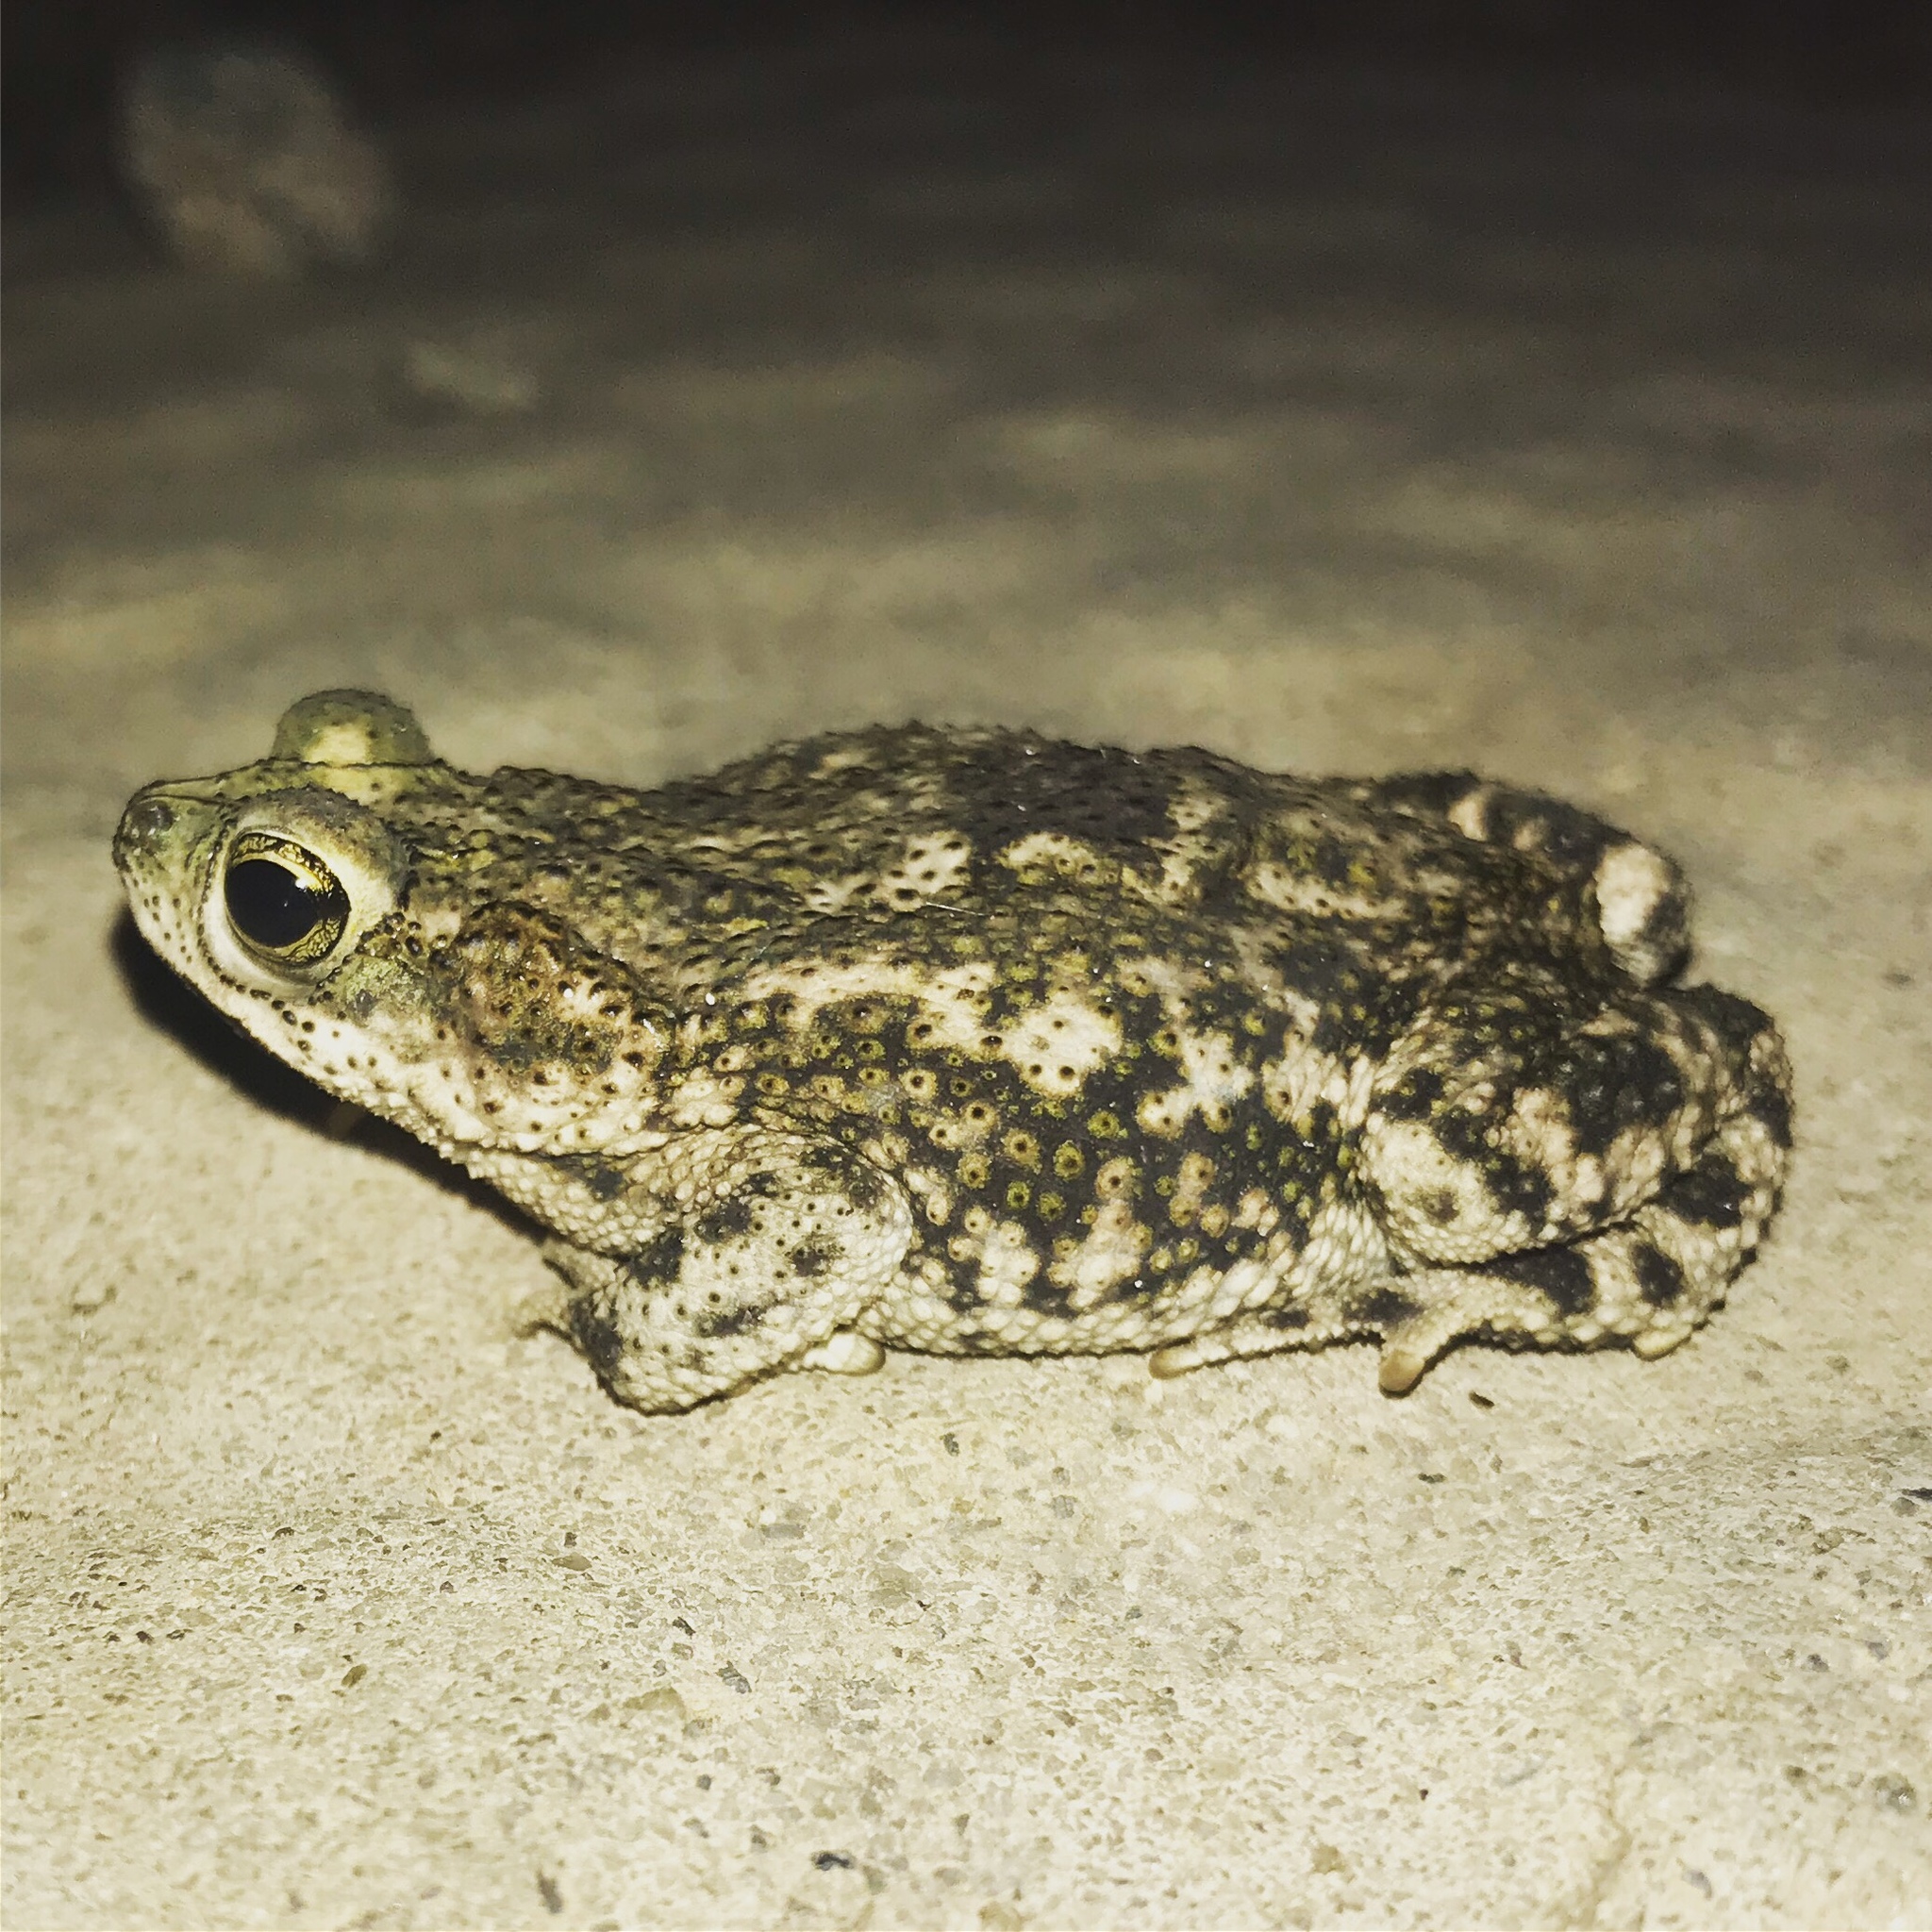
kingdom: Animalia
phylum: Chordata
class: Amphibia
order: Anura
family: Bufonidae
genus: Rhinella
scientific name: Rhinella granulosa
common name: Common lesser toad
